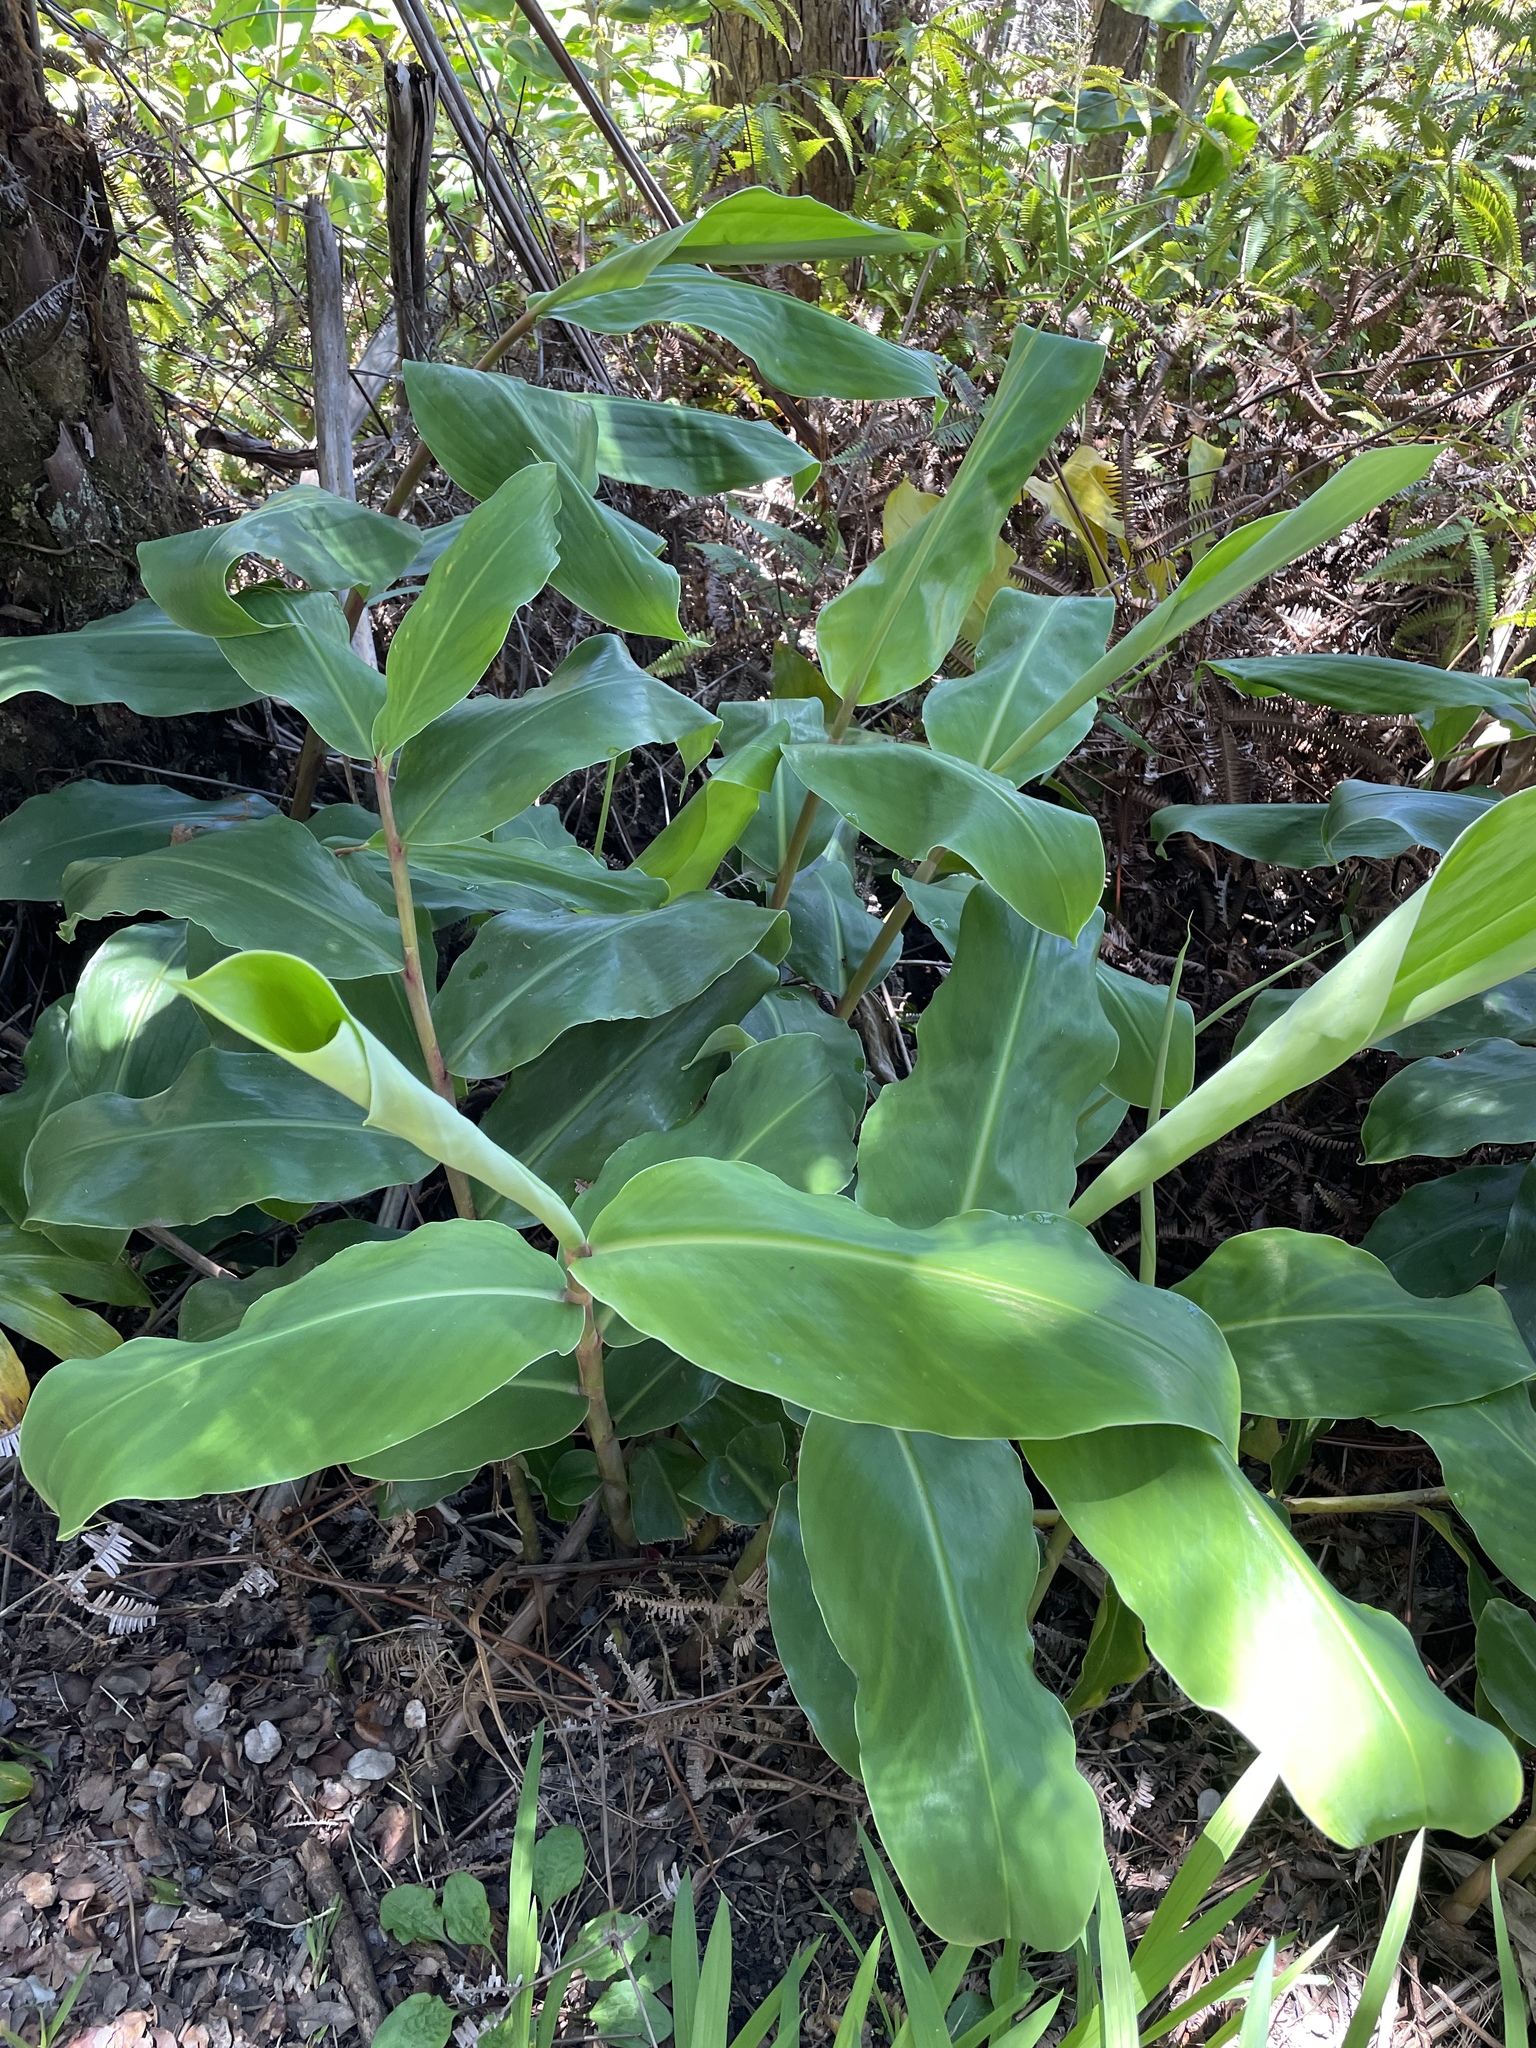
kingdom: Plantae
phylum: Tracheophyta
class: Liliopsida
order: Zingiberales
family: Zingiberaceae
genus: Hedychium
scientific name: Hedychium gardnerianum
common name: Himalayan ginger
